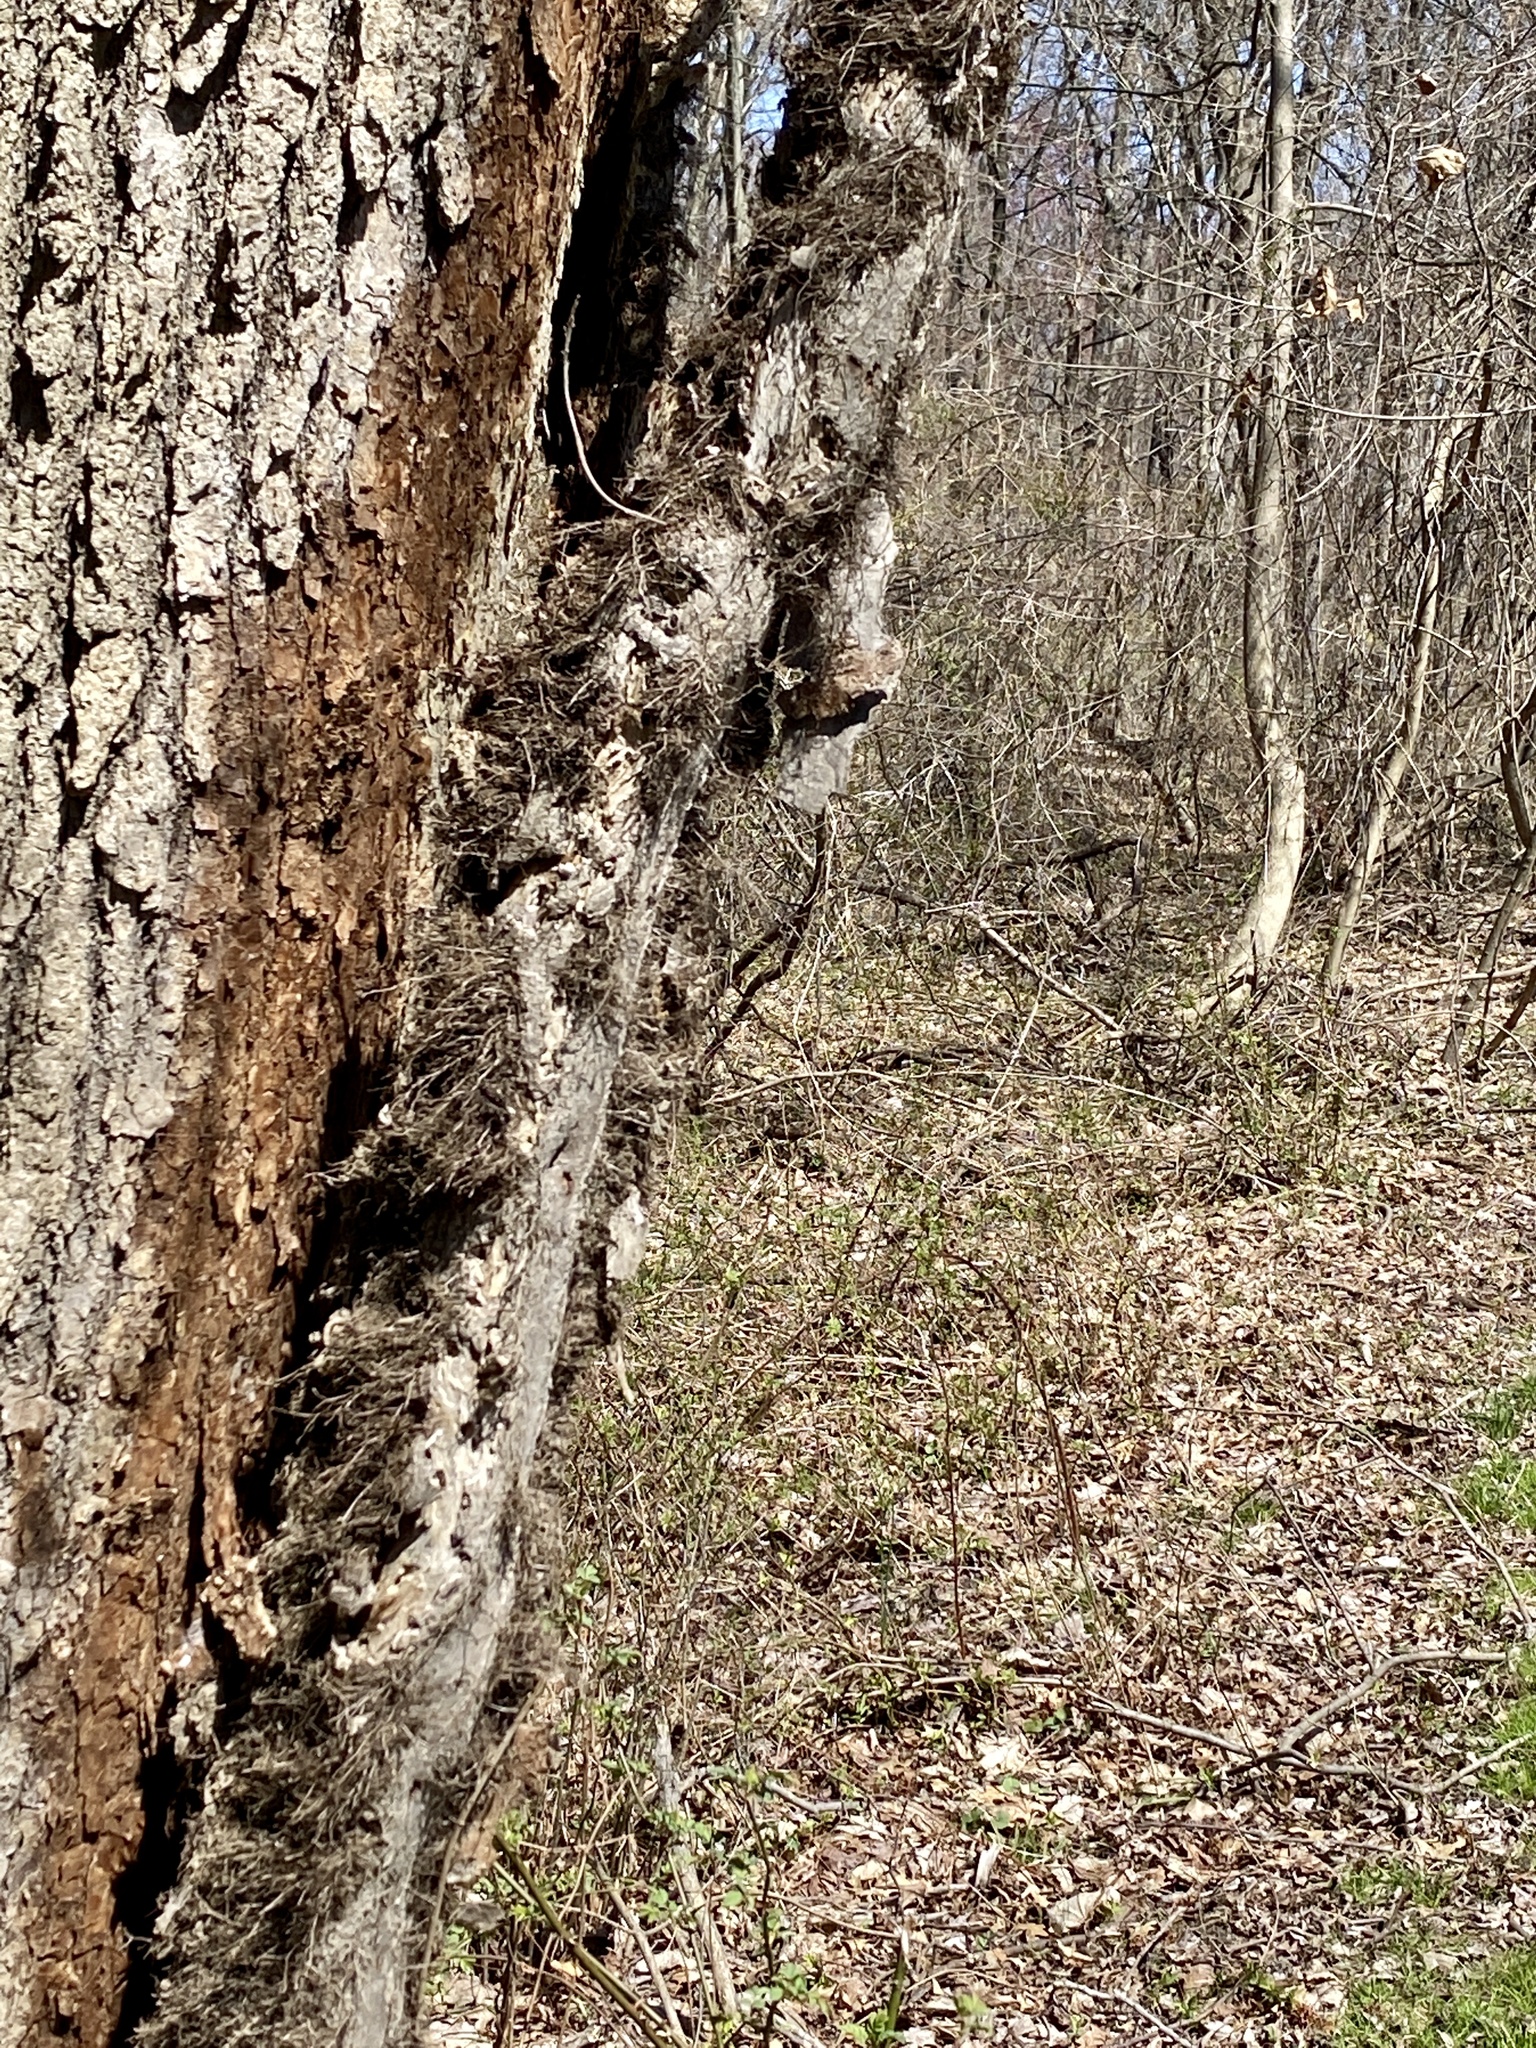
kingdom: Plantae
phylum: Tracheophyta
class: Magnoliopsida
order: Sapindales
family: Anacardiaceae
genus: Toxicodendron
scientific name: Toxicodendron radicans
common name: Poison ivy
